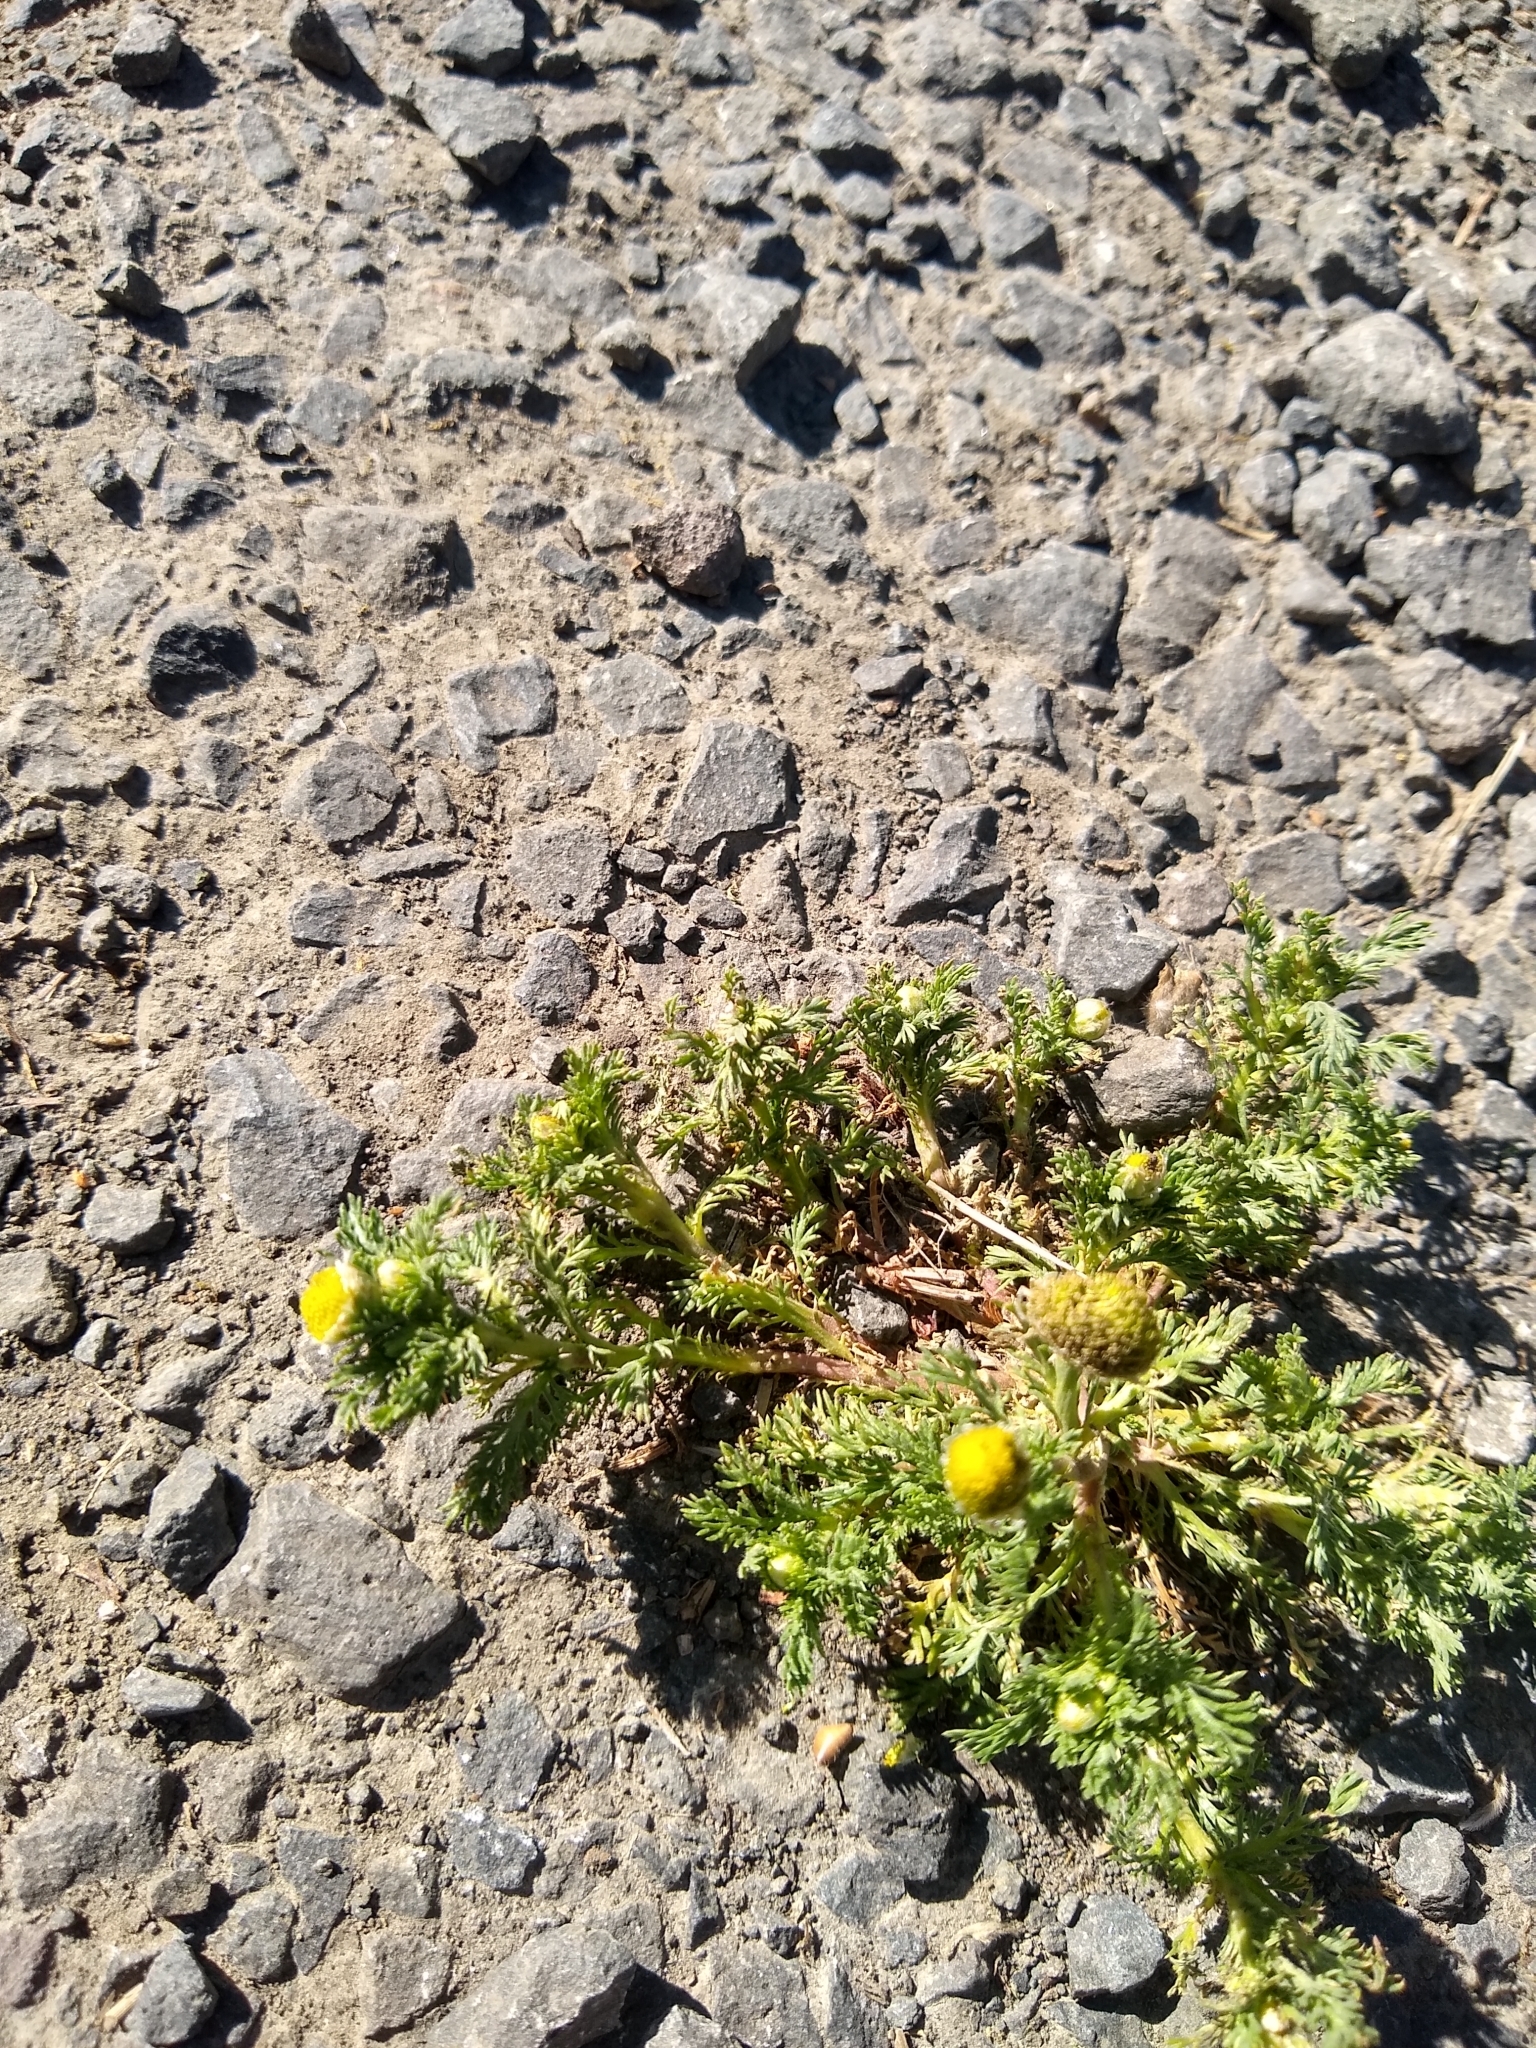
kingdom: Plantae
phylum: Tracheophyta
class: Magnoliopsida
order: Asterales
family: Asteraceae
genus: Matricaria
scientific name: Matricaria discoidea
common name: Disc mayweed
